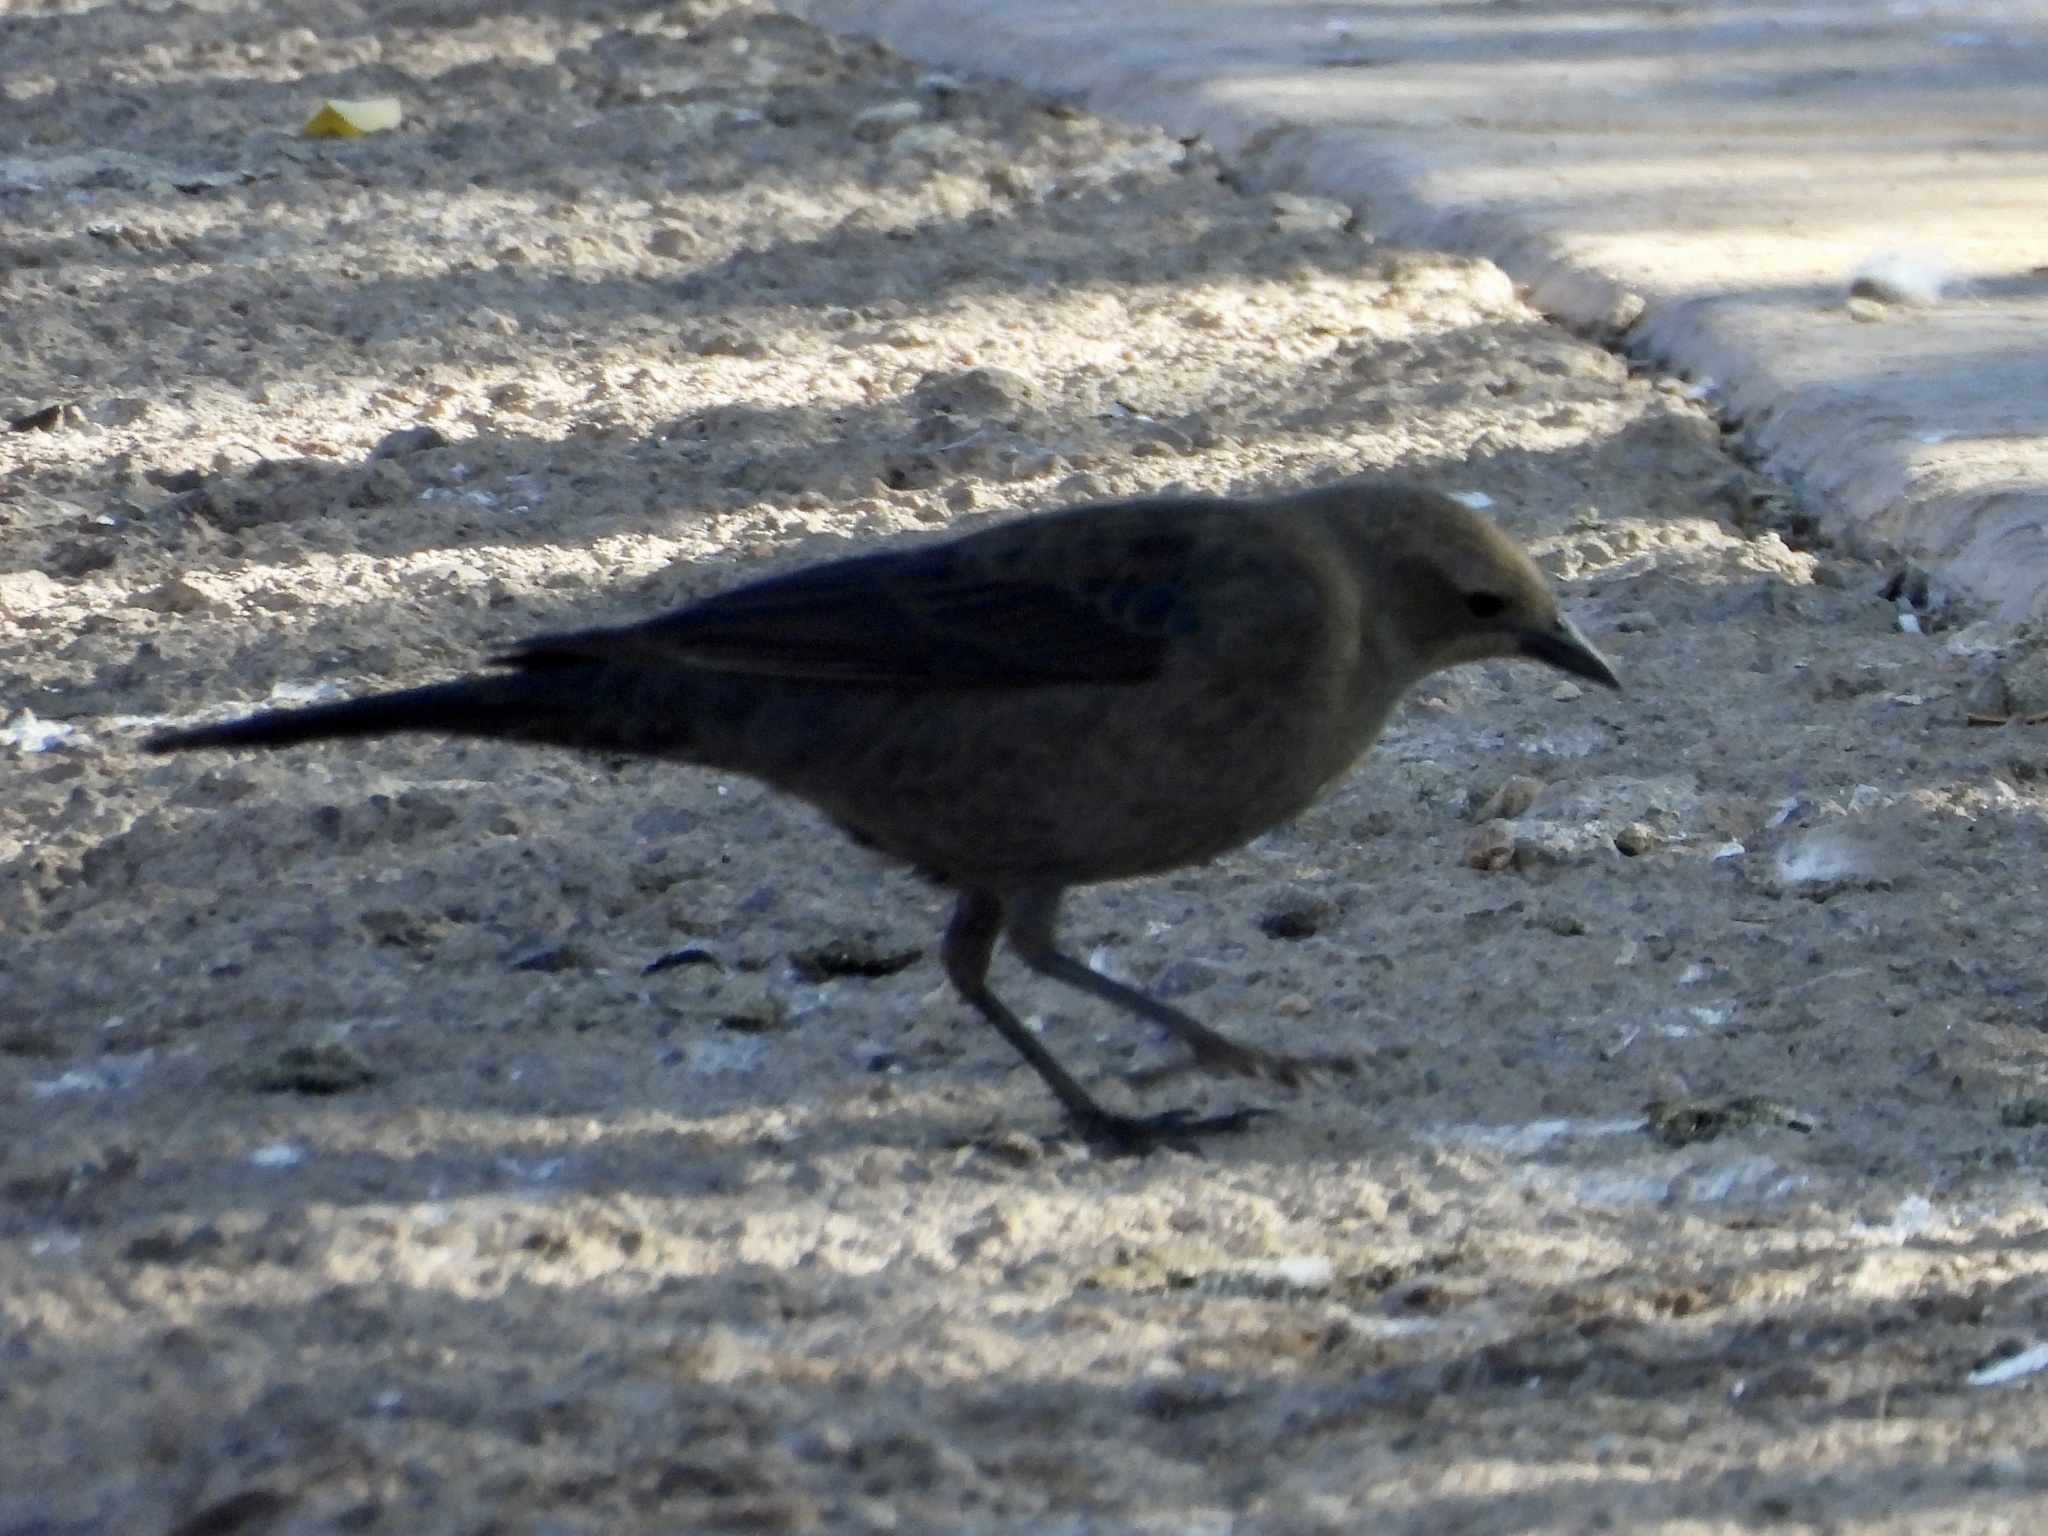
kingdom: Animalia
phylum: Chordata
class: Aves
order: Passeriformes
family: Icteridae
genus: Euphagus
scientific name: Euphagus cyanocephalus
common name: Brewer's blackbird
